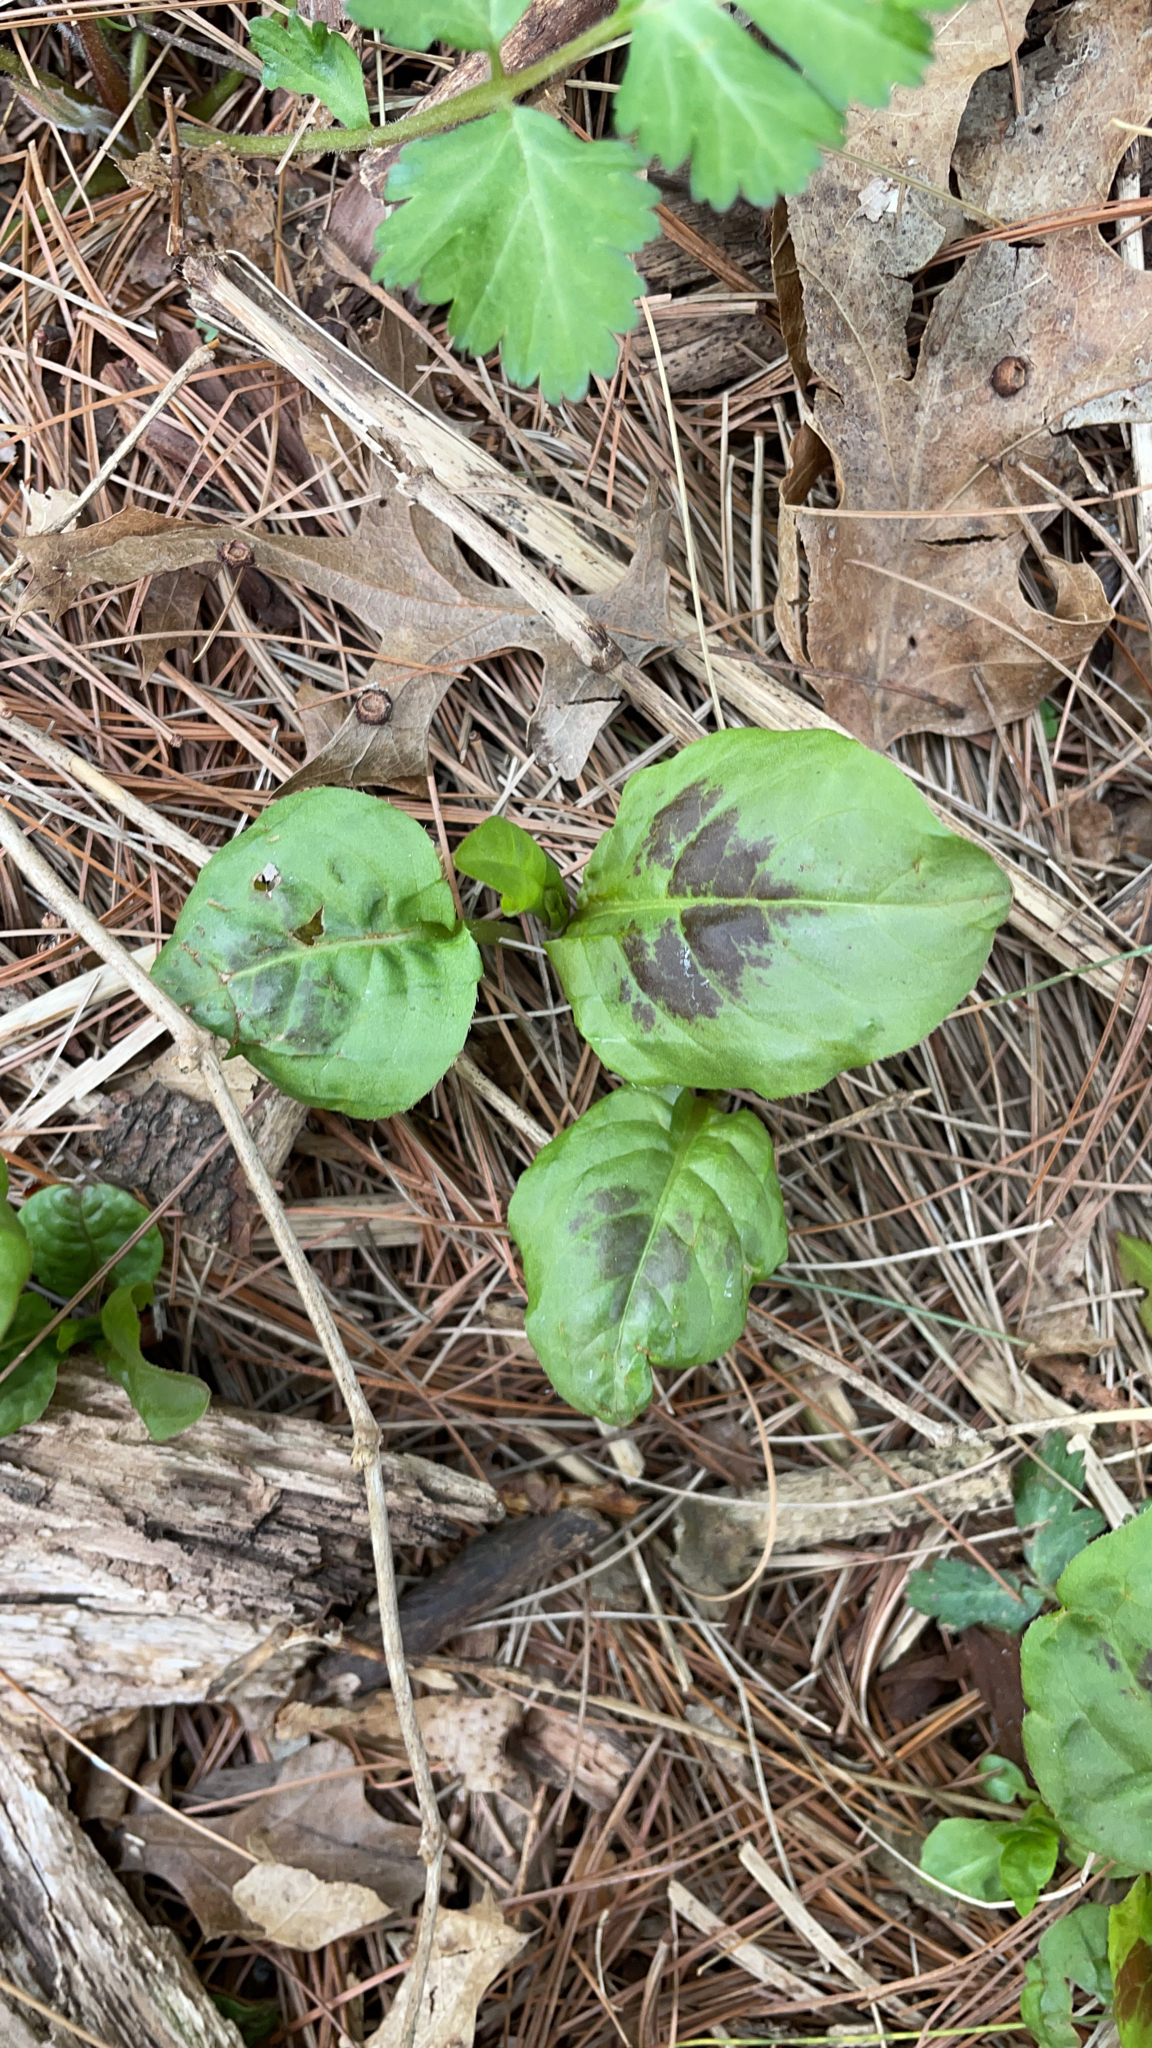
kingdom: Plantae
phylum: Tracheophyta
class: Magnoliopsida
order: Caryophyllales
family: Polygonaceae
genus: Persicaria
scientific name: Persicaria virginiana
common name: Jumpseed
